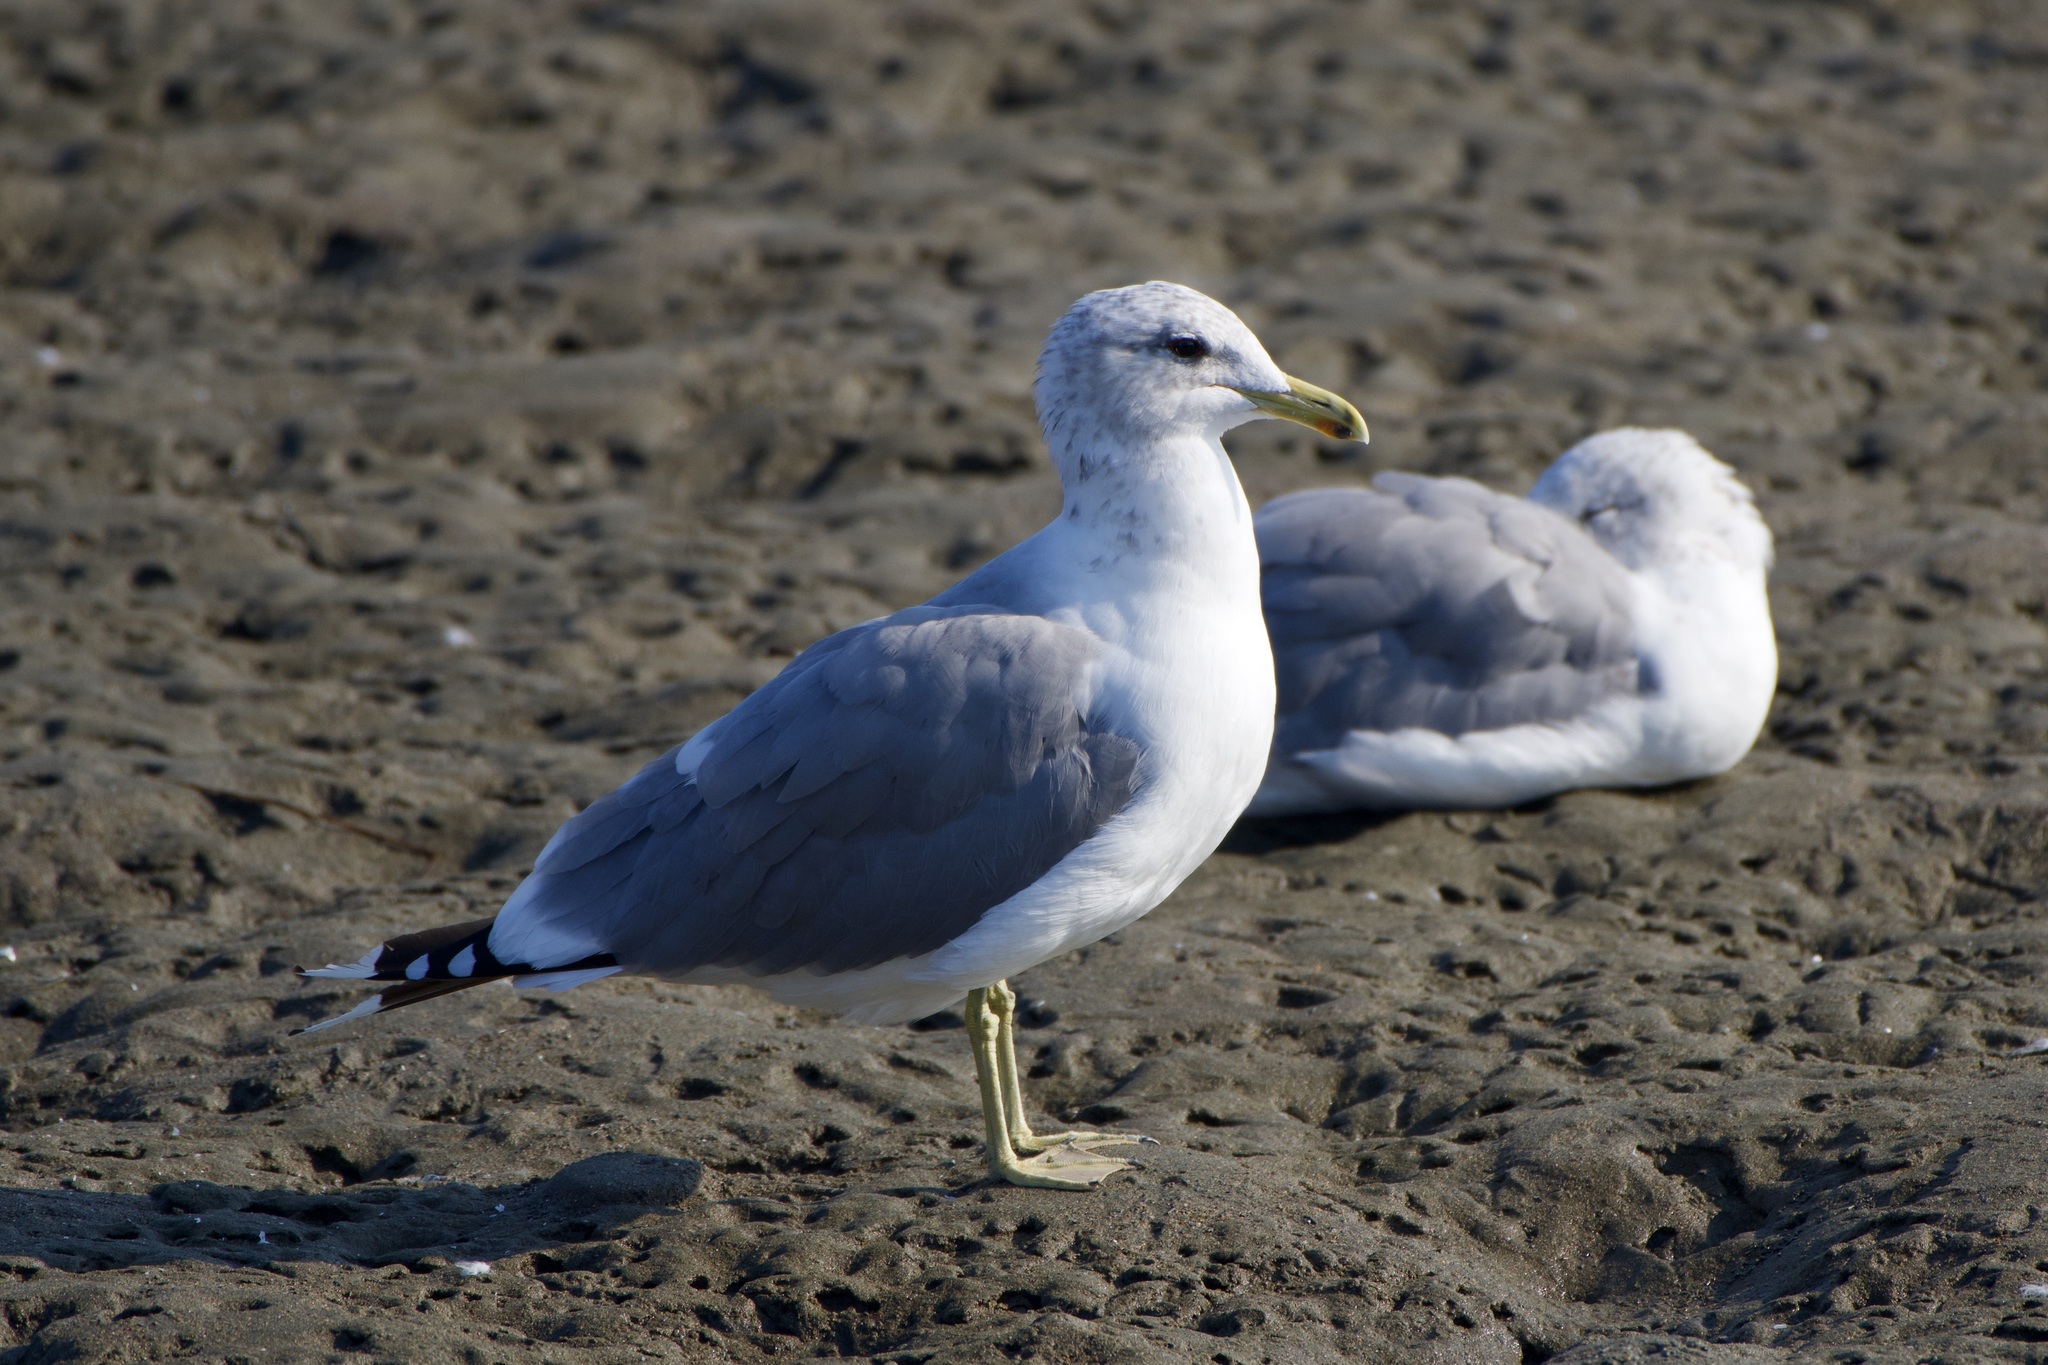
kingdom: Animalia
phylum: Chordata
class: Aves
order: Charadriiformes
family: Laridae
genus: Larus
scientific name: Larus californicus
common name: California gull
